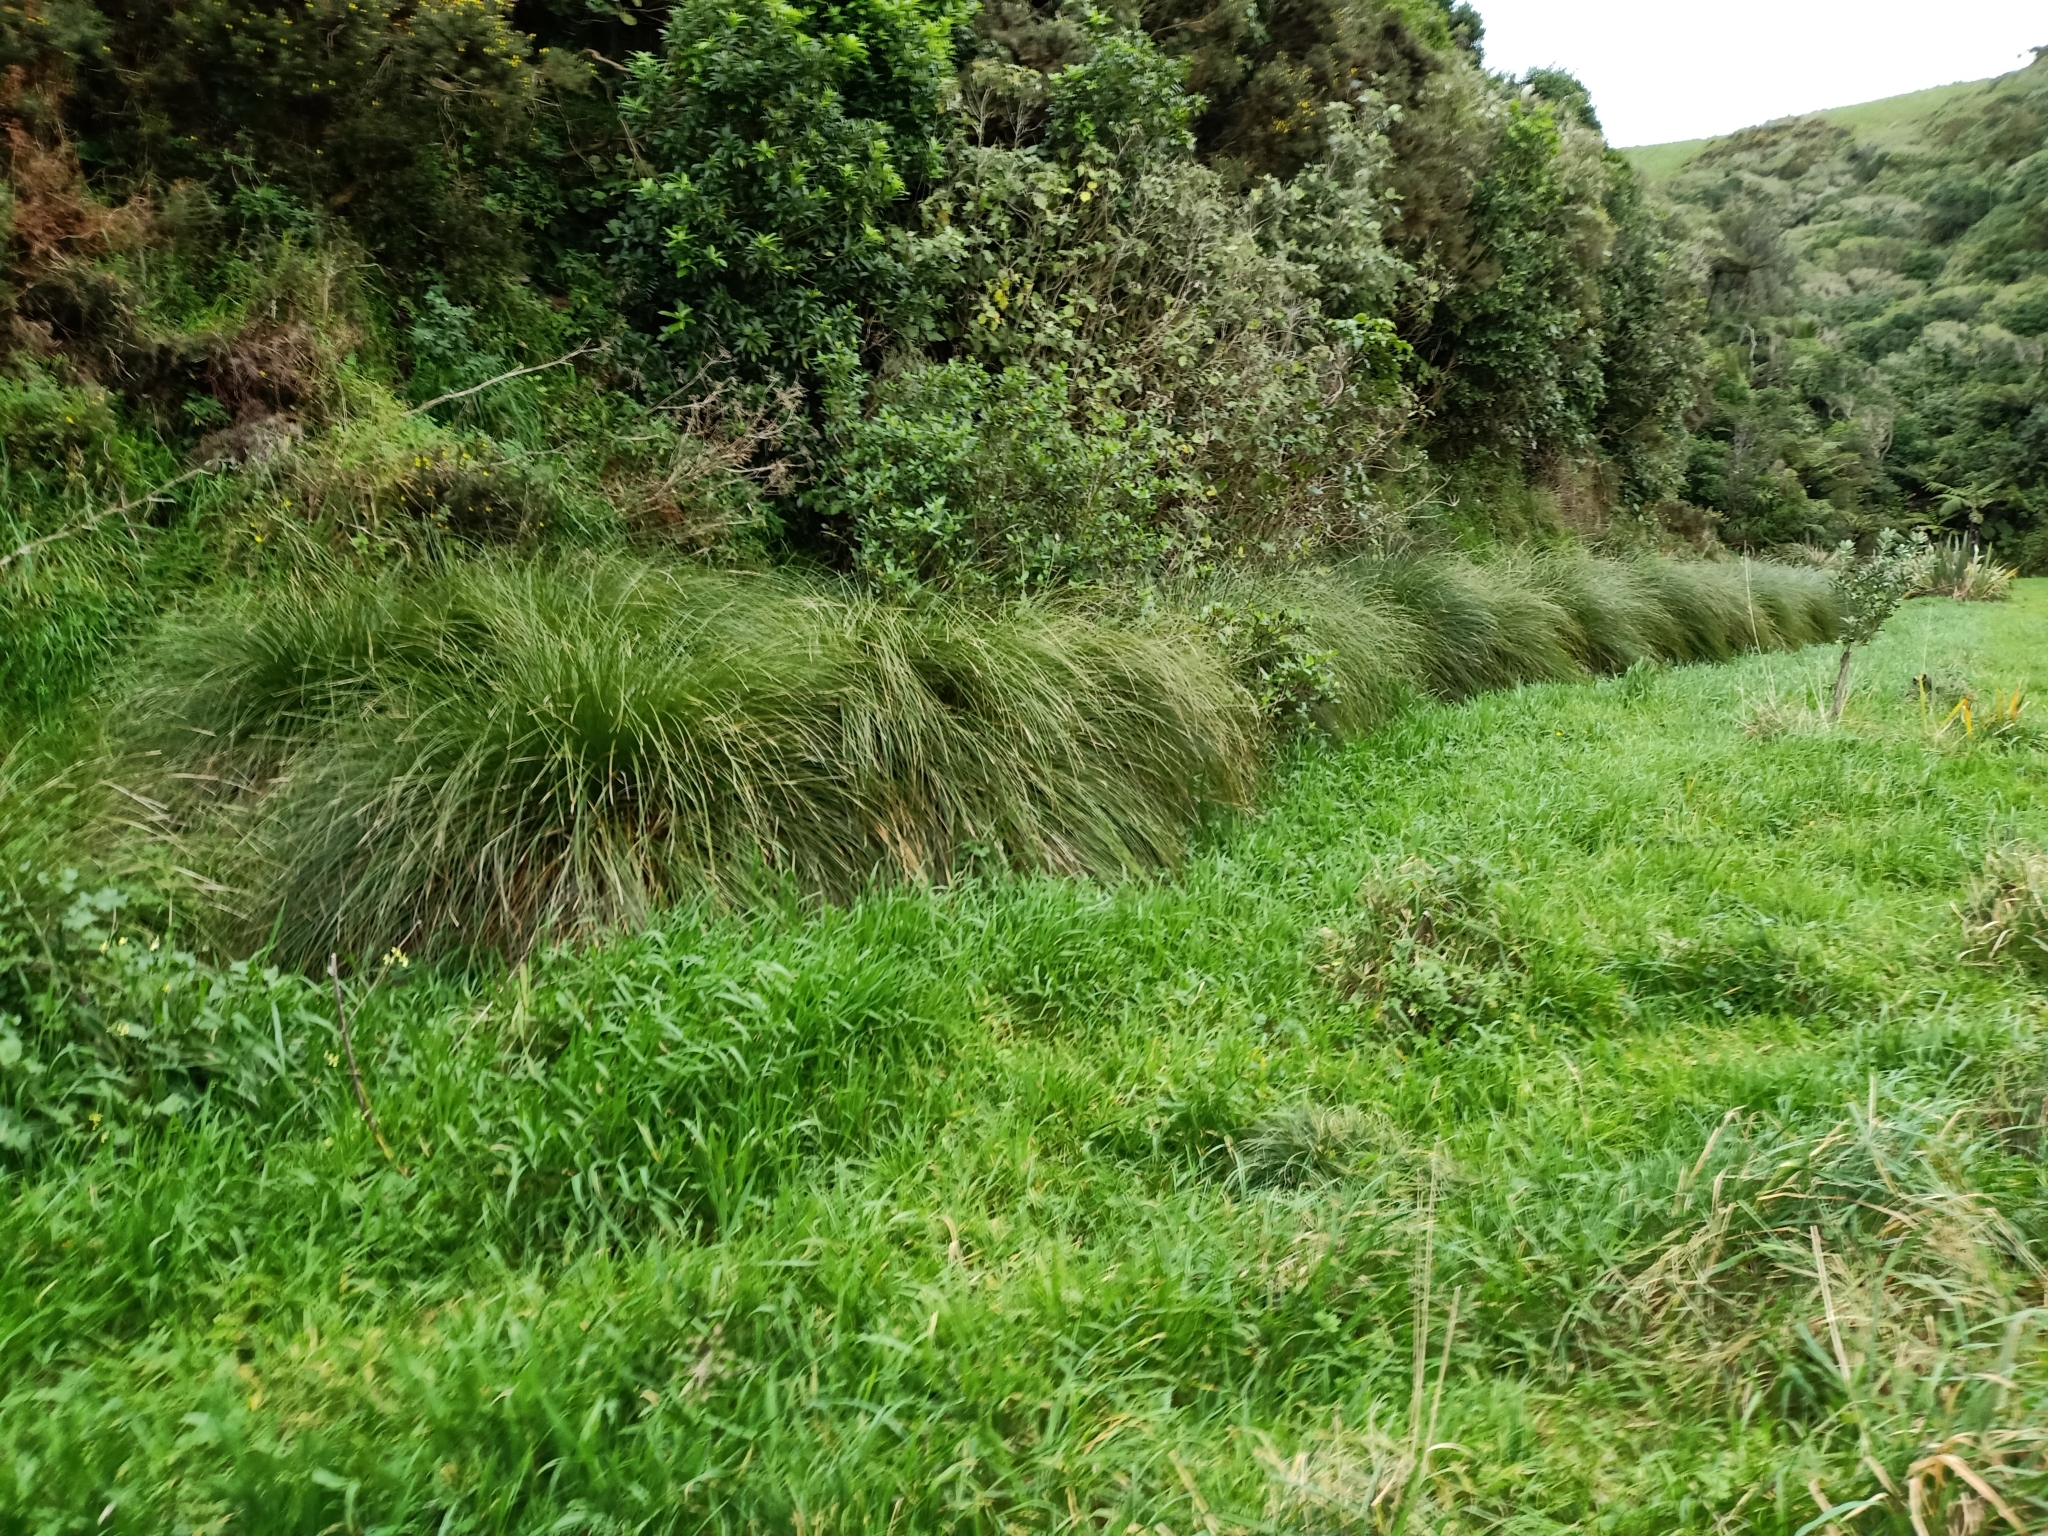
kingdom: Plantae
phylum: Tracheophyta
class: Liliopsida
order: Poales
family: Cyperaceae
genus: Carex
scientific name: Carex secta
